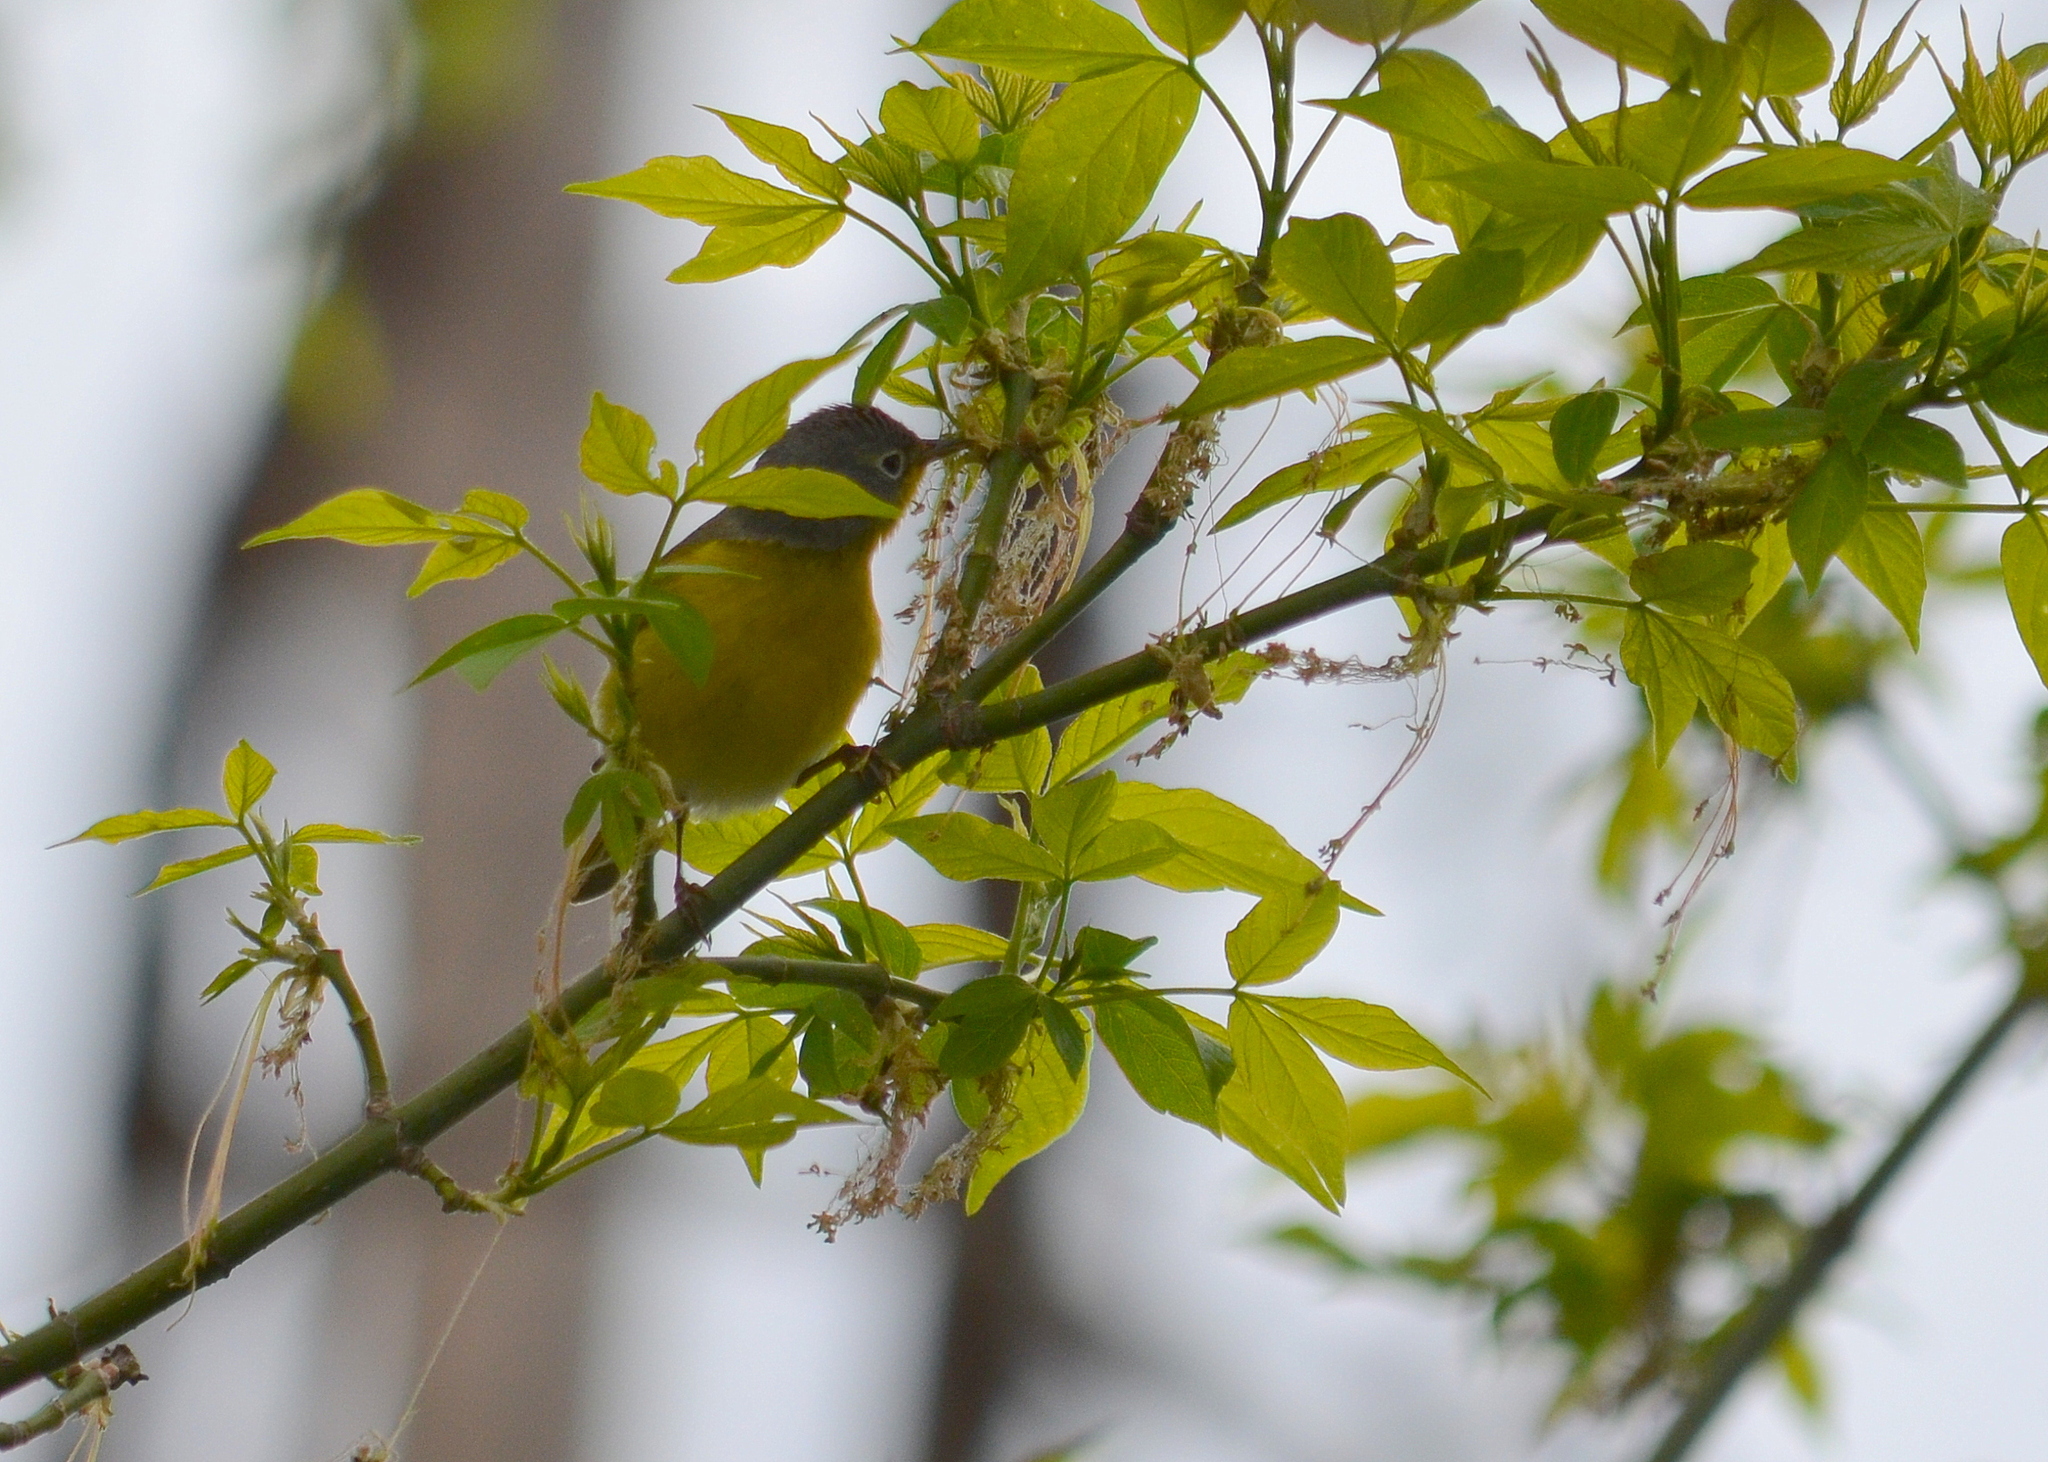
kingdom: Animalia
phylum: Chordata
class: Aves
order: Passeriformes
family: Parulidae
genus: Leiothlypis
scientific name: Leiothlypis ruficapilla
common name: Nashville warbler
